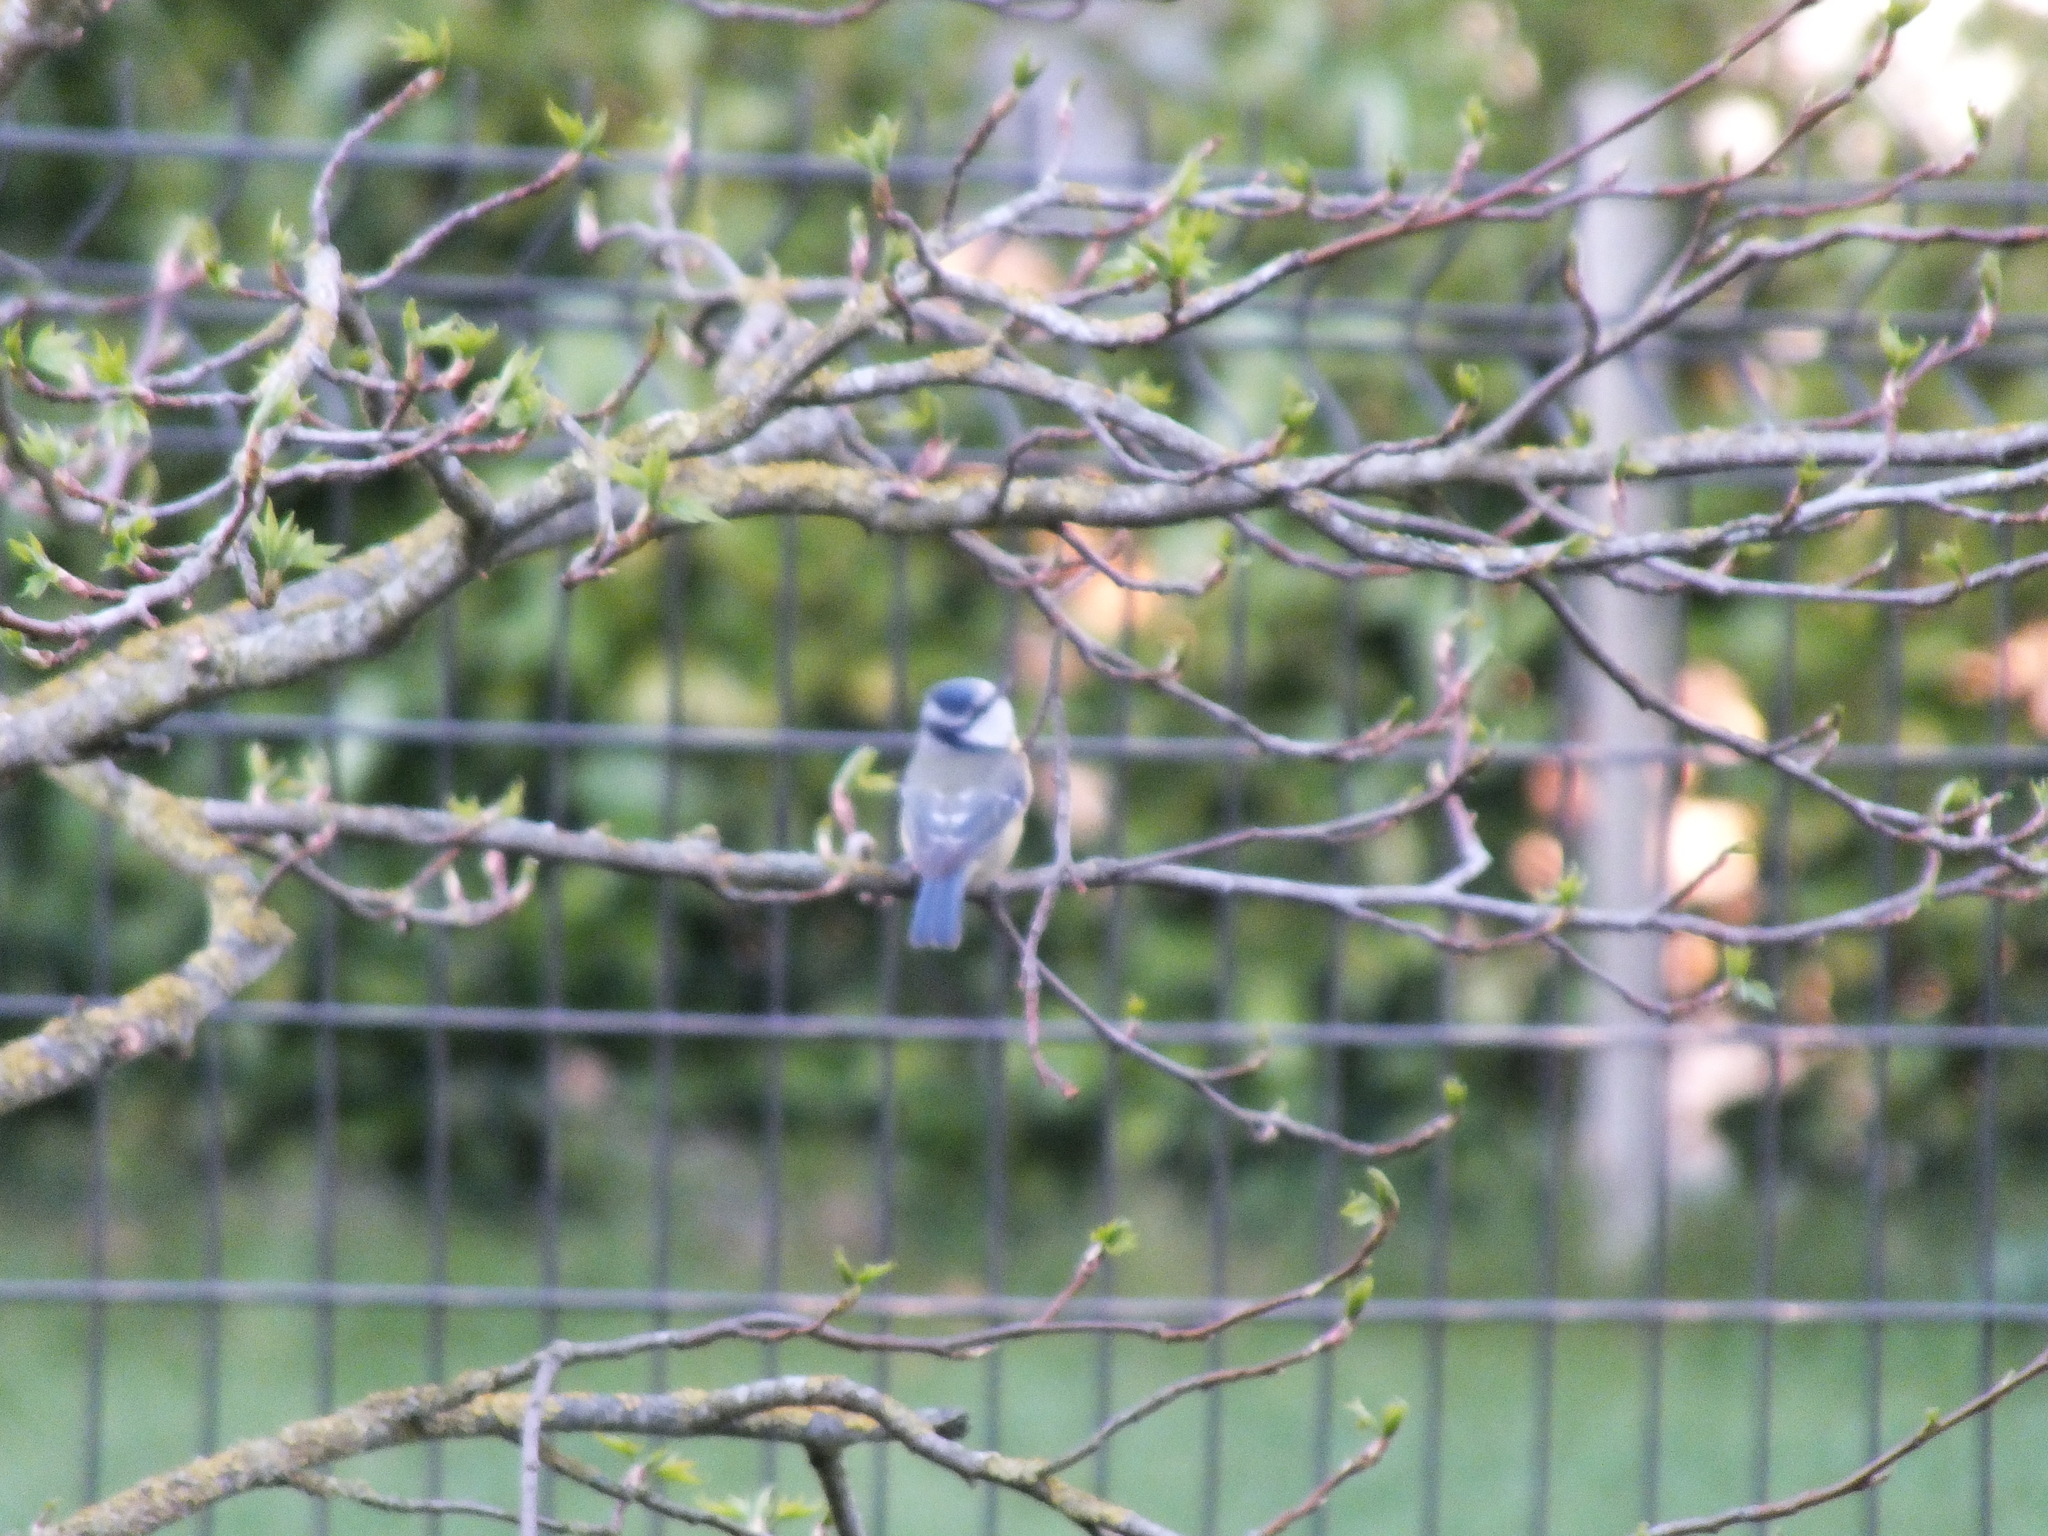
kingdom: Animalia
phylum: Chordata
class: Aves
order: Passeriformes
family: Paridae
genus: Cyanistes
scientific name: Cyanistes caeruleus
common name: Eurasian blue tit
